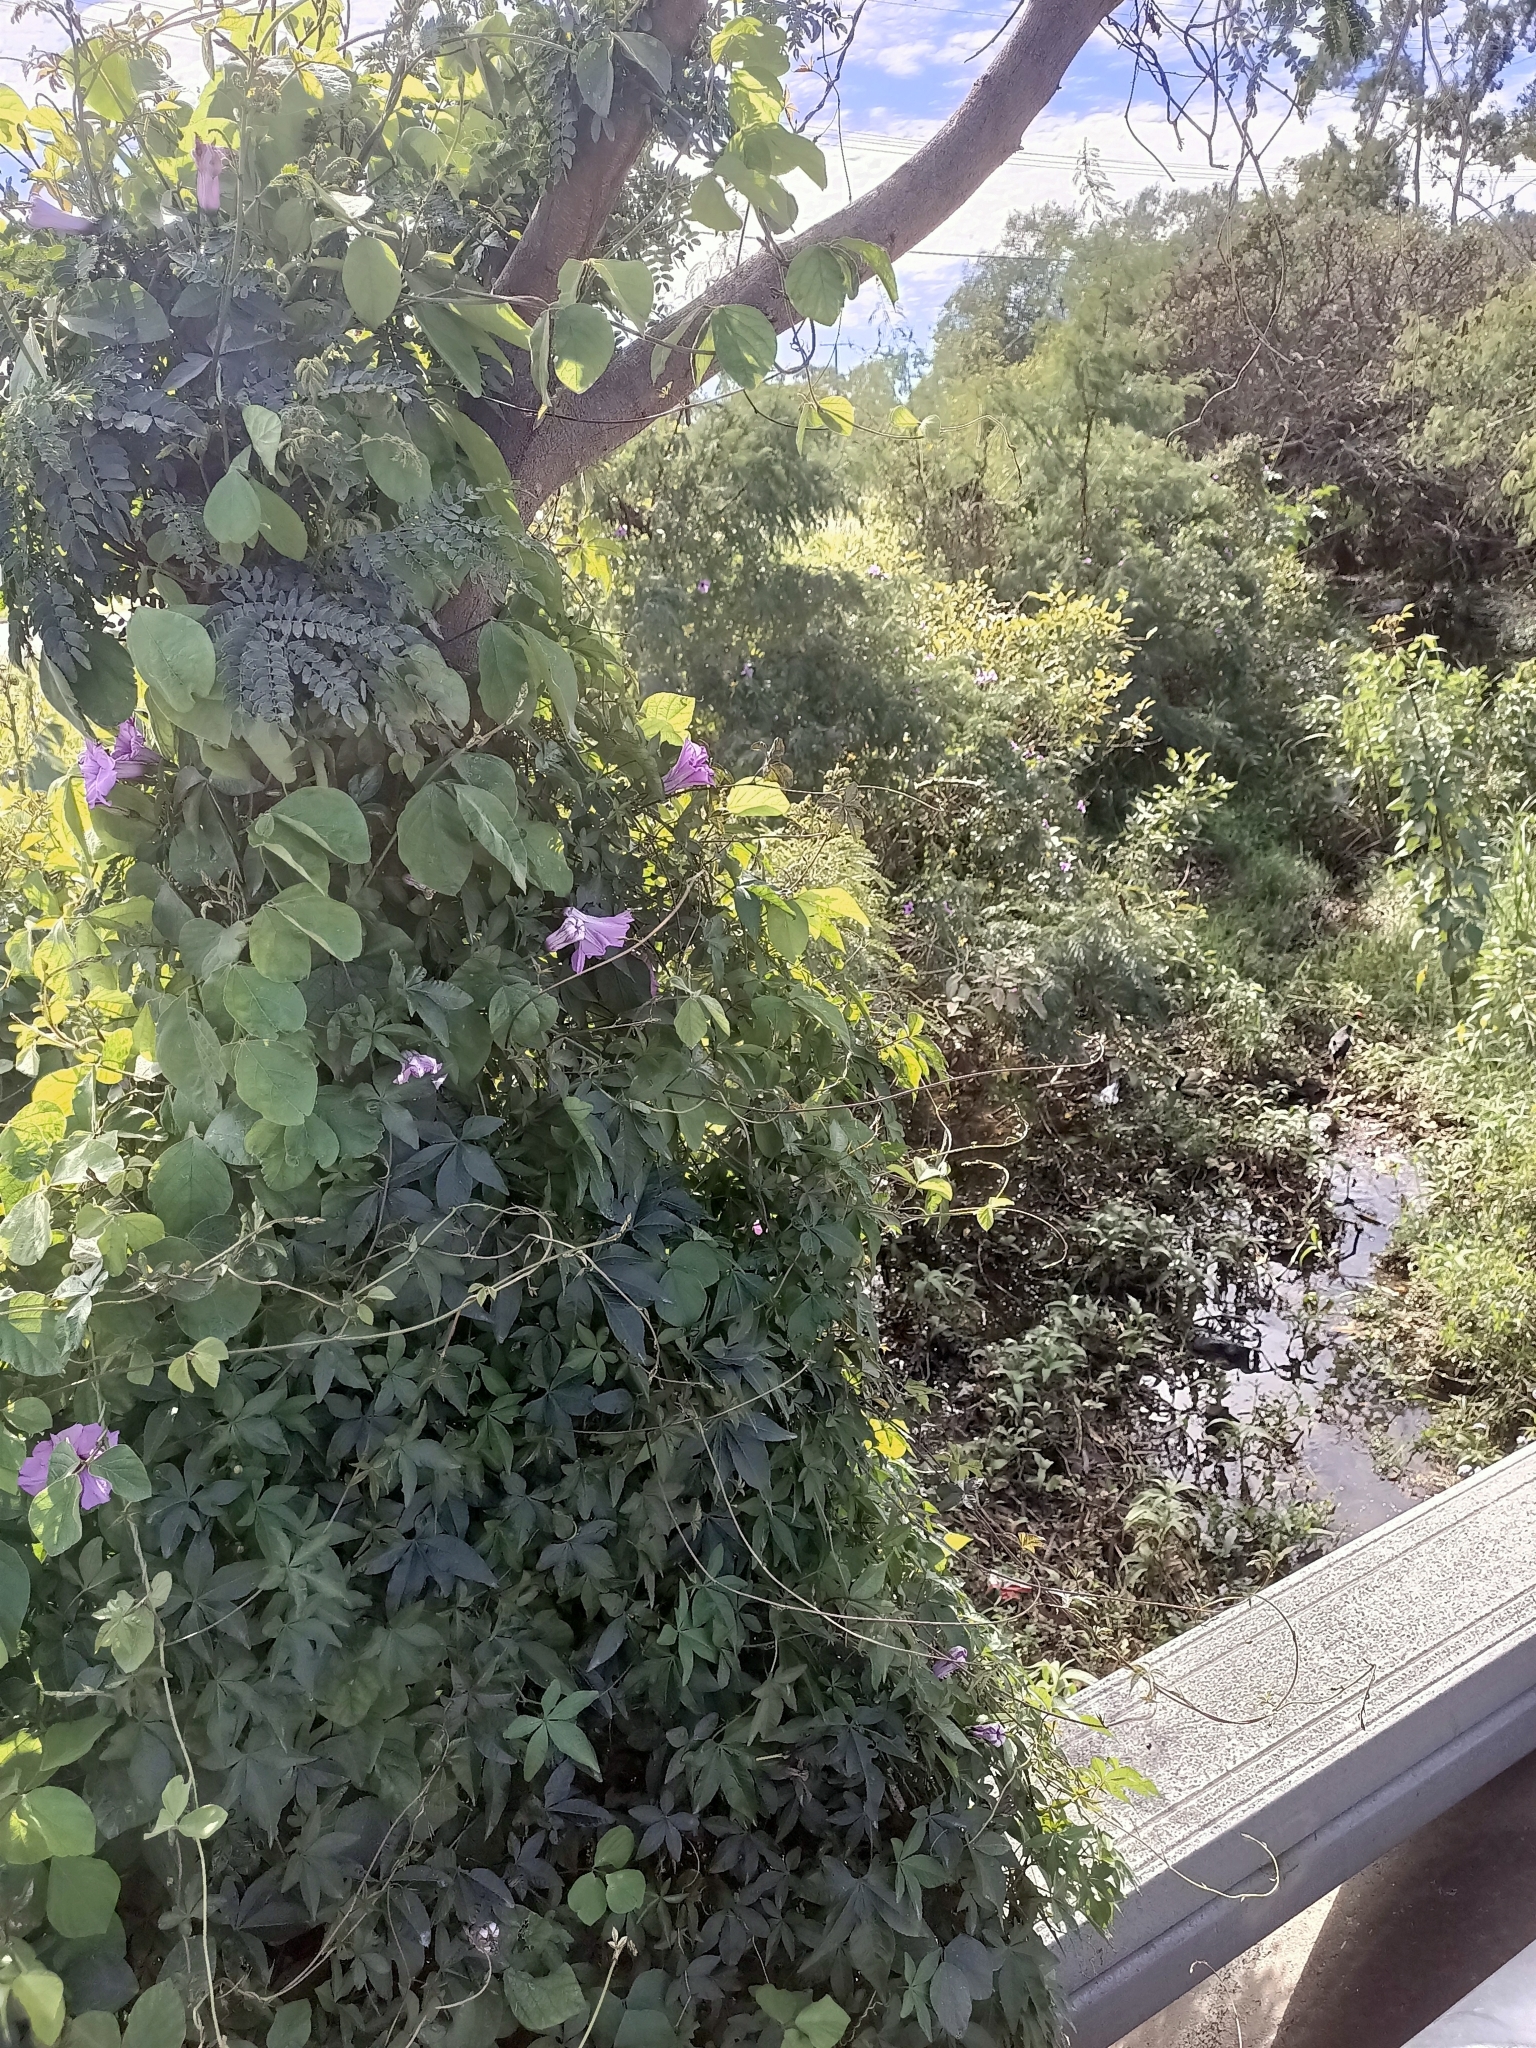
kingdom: Plantae
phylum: Tracheophyta
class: Magnoliopsida
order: Solanales
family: Convolvulaceae
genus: Ipomoea
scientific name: Ipomoea cairica
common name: Mile a minute vine
